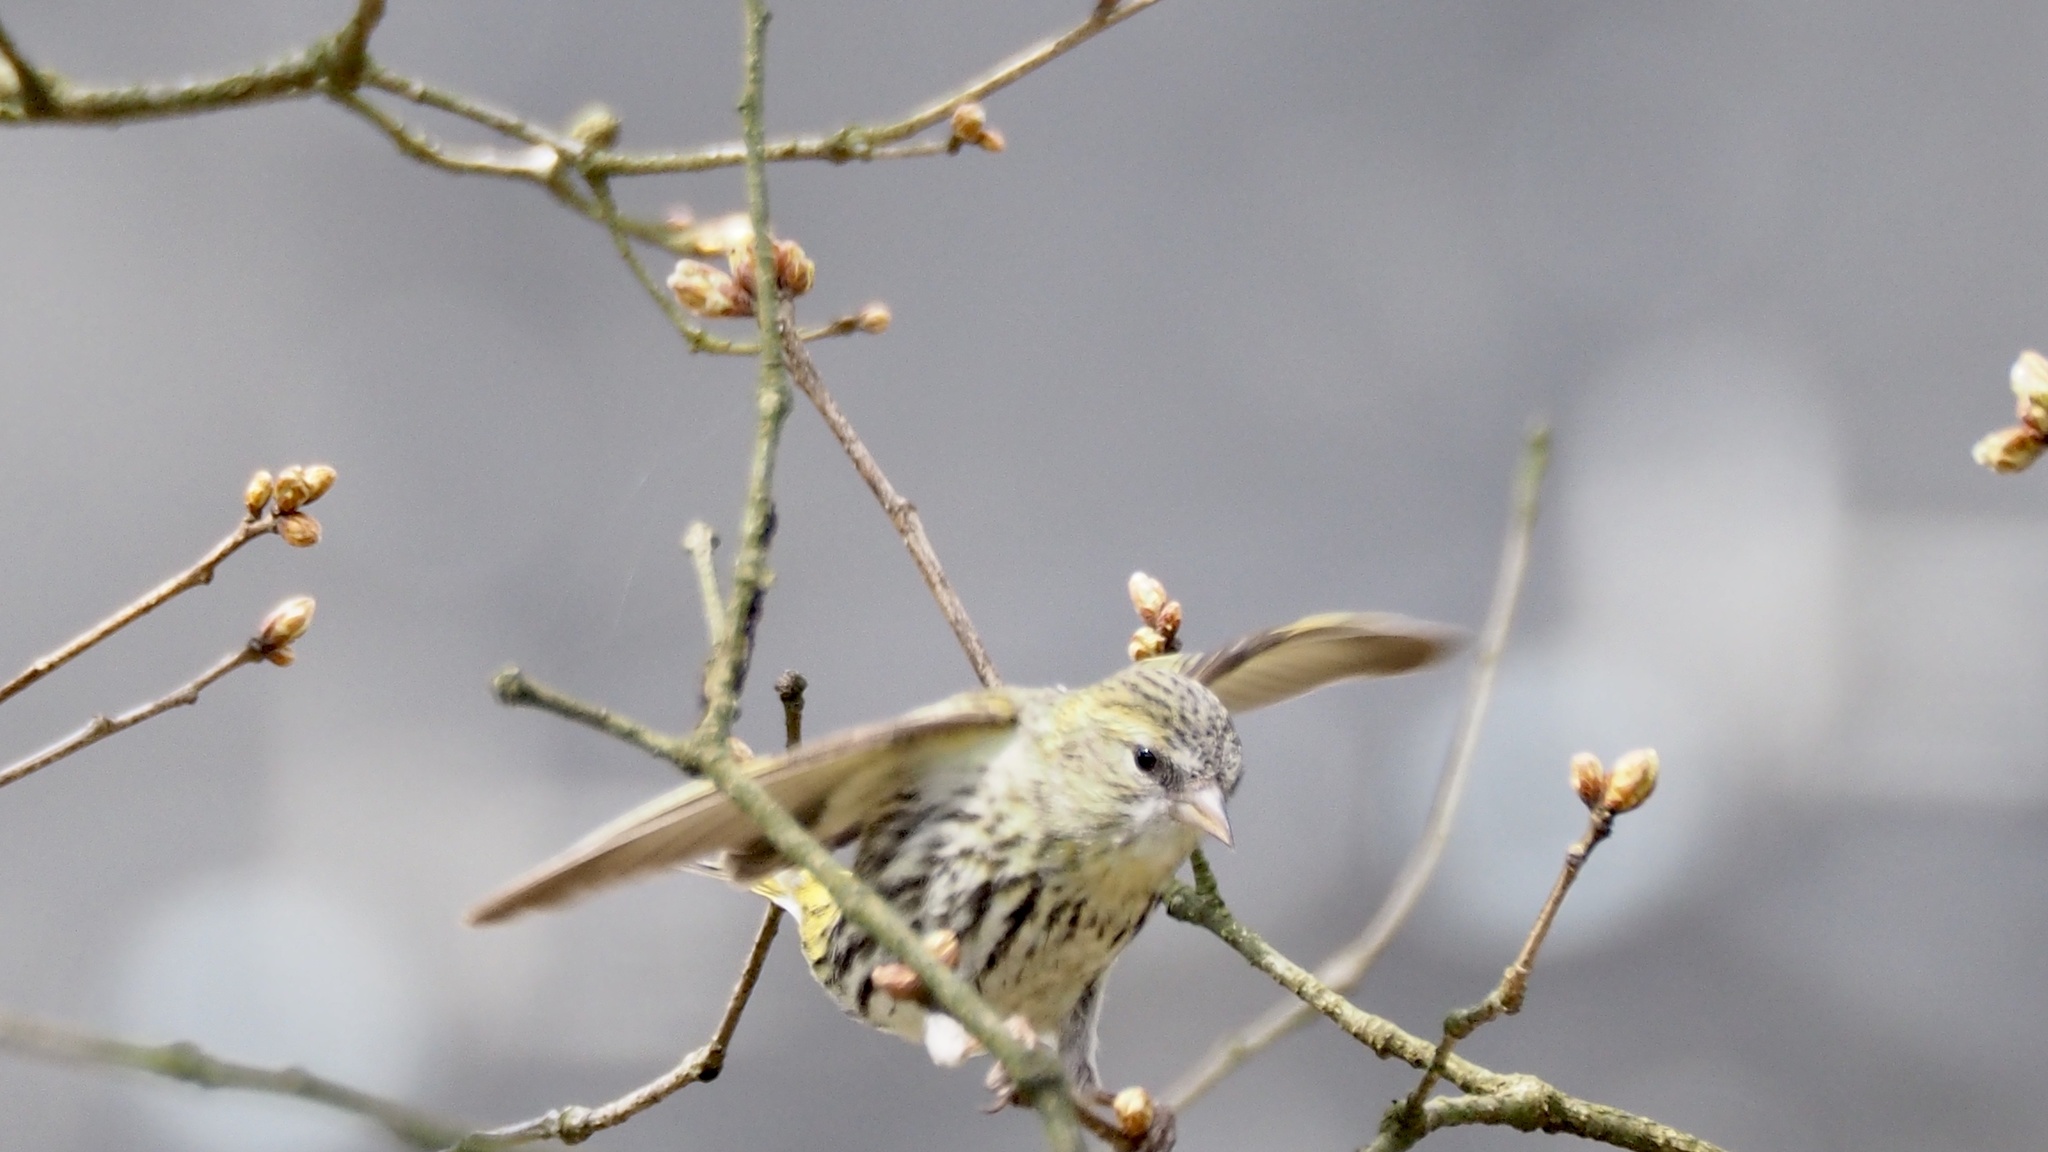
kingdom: Animalia
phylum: Chordata
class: Aves
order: Passeriformes
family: Fringillidae
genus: Spinus
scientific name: Spinus spinus
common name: Eurasian siskin
